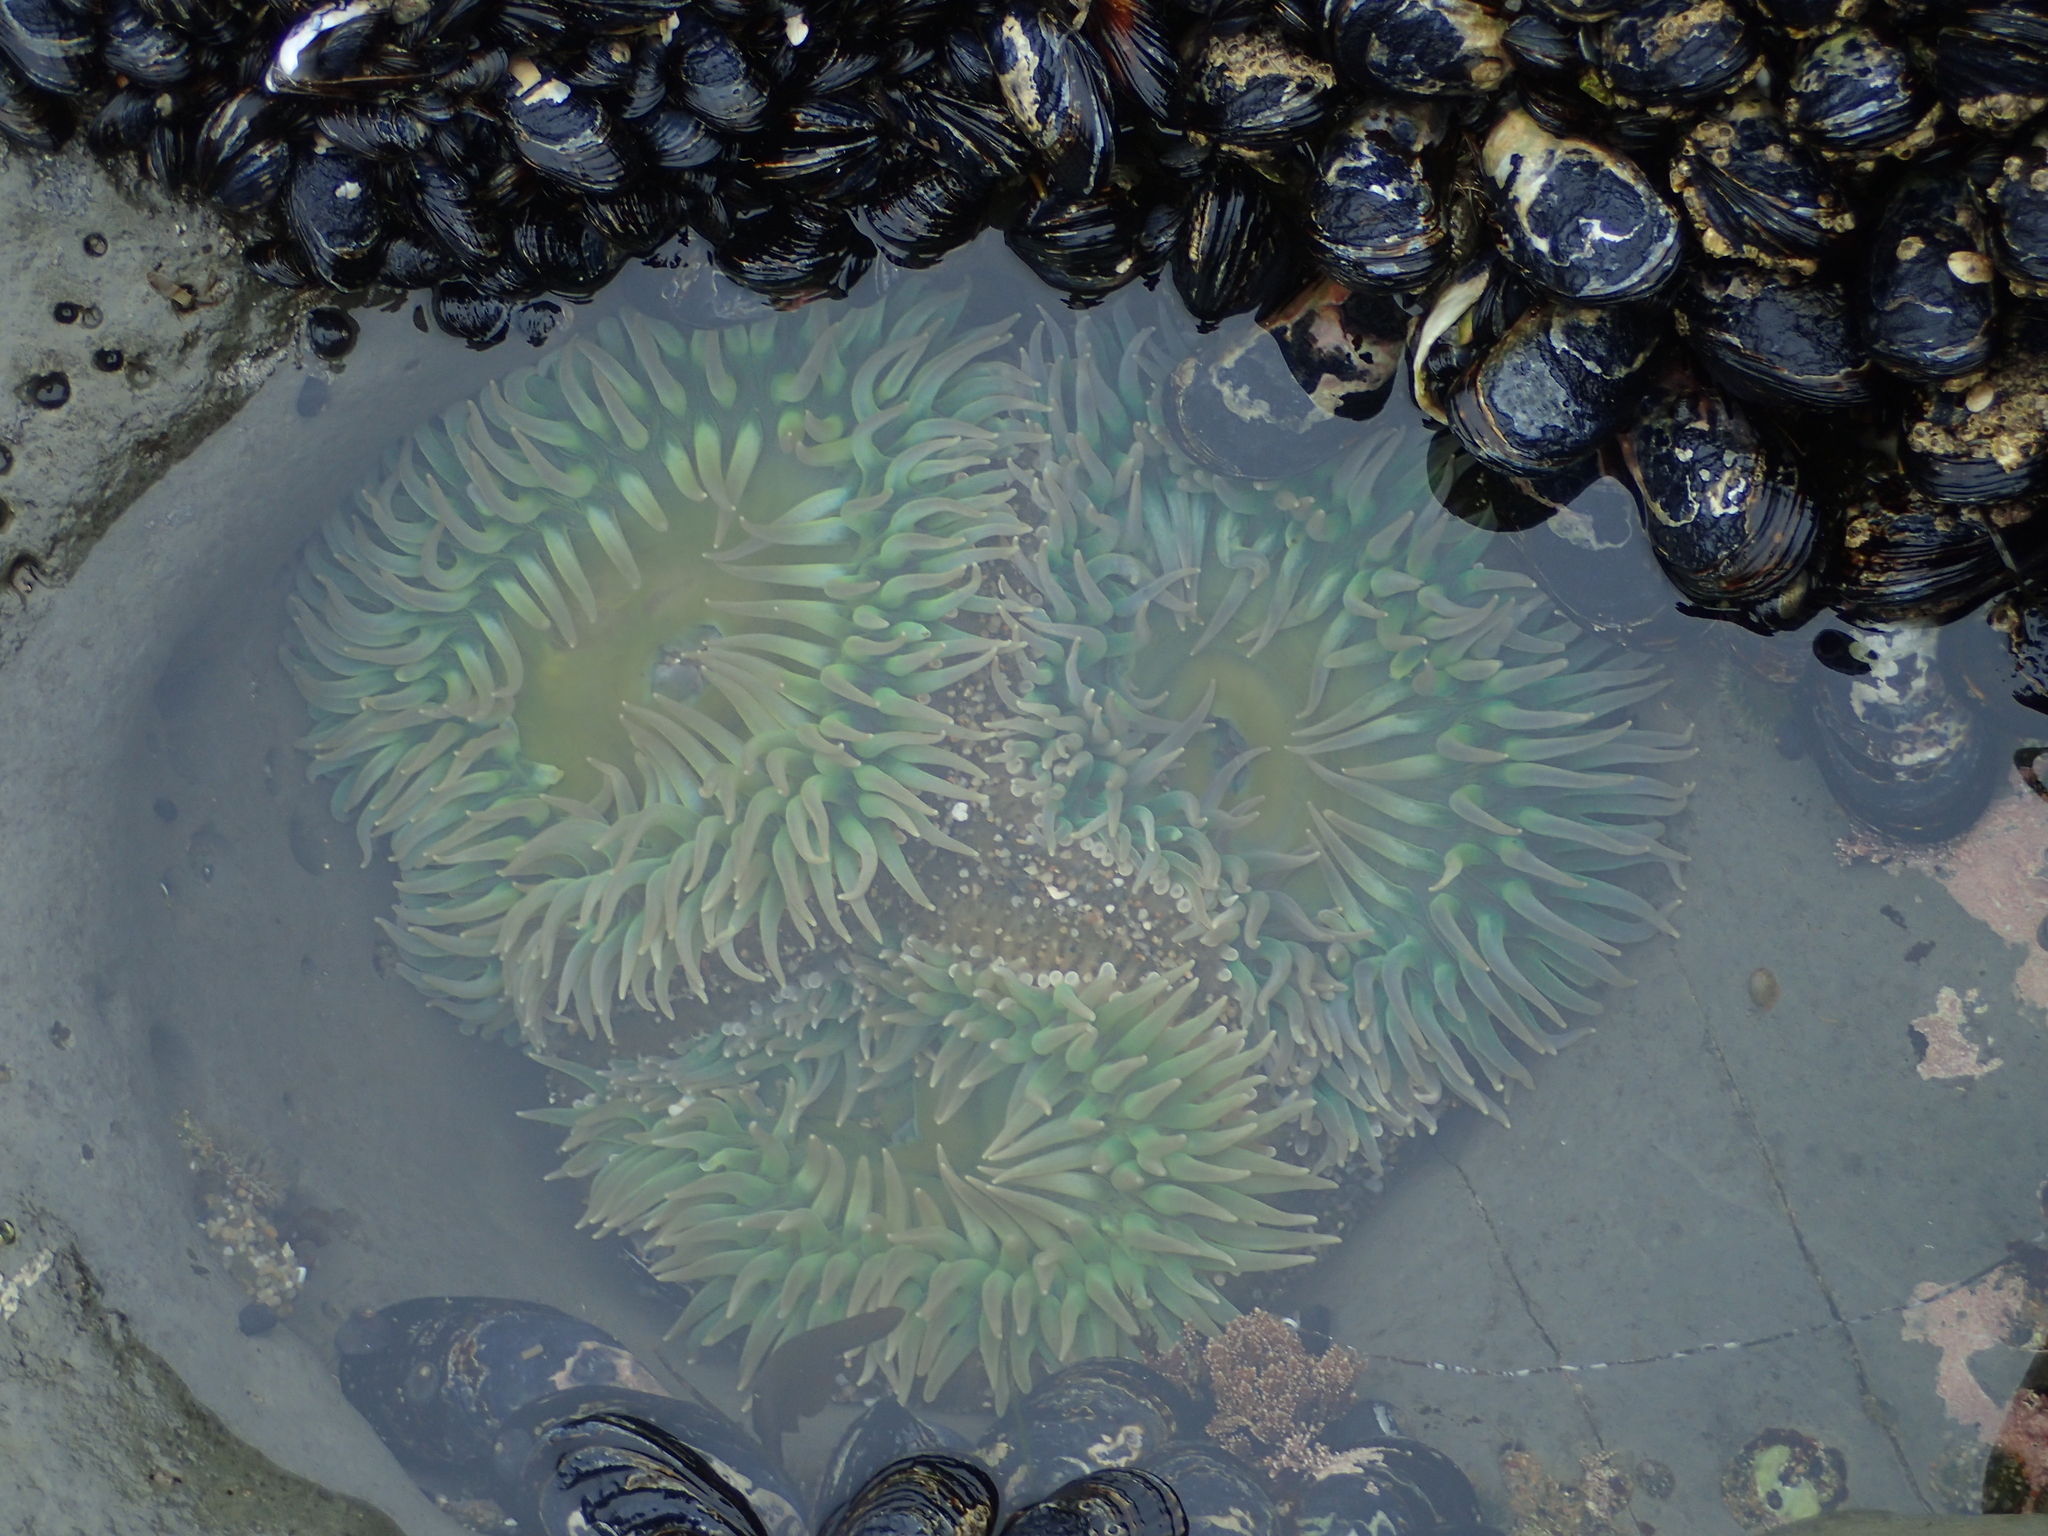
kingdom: Animalia
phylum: Cnidaria
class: Anthozoa
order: Actiniaria
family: Actiniidae
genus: Anthopleura
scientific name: Anthopleura xanthogrammica
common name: Giant green anemone
